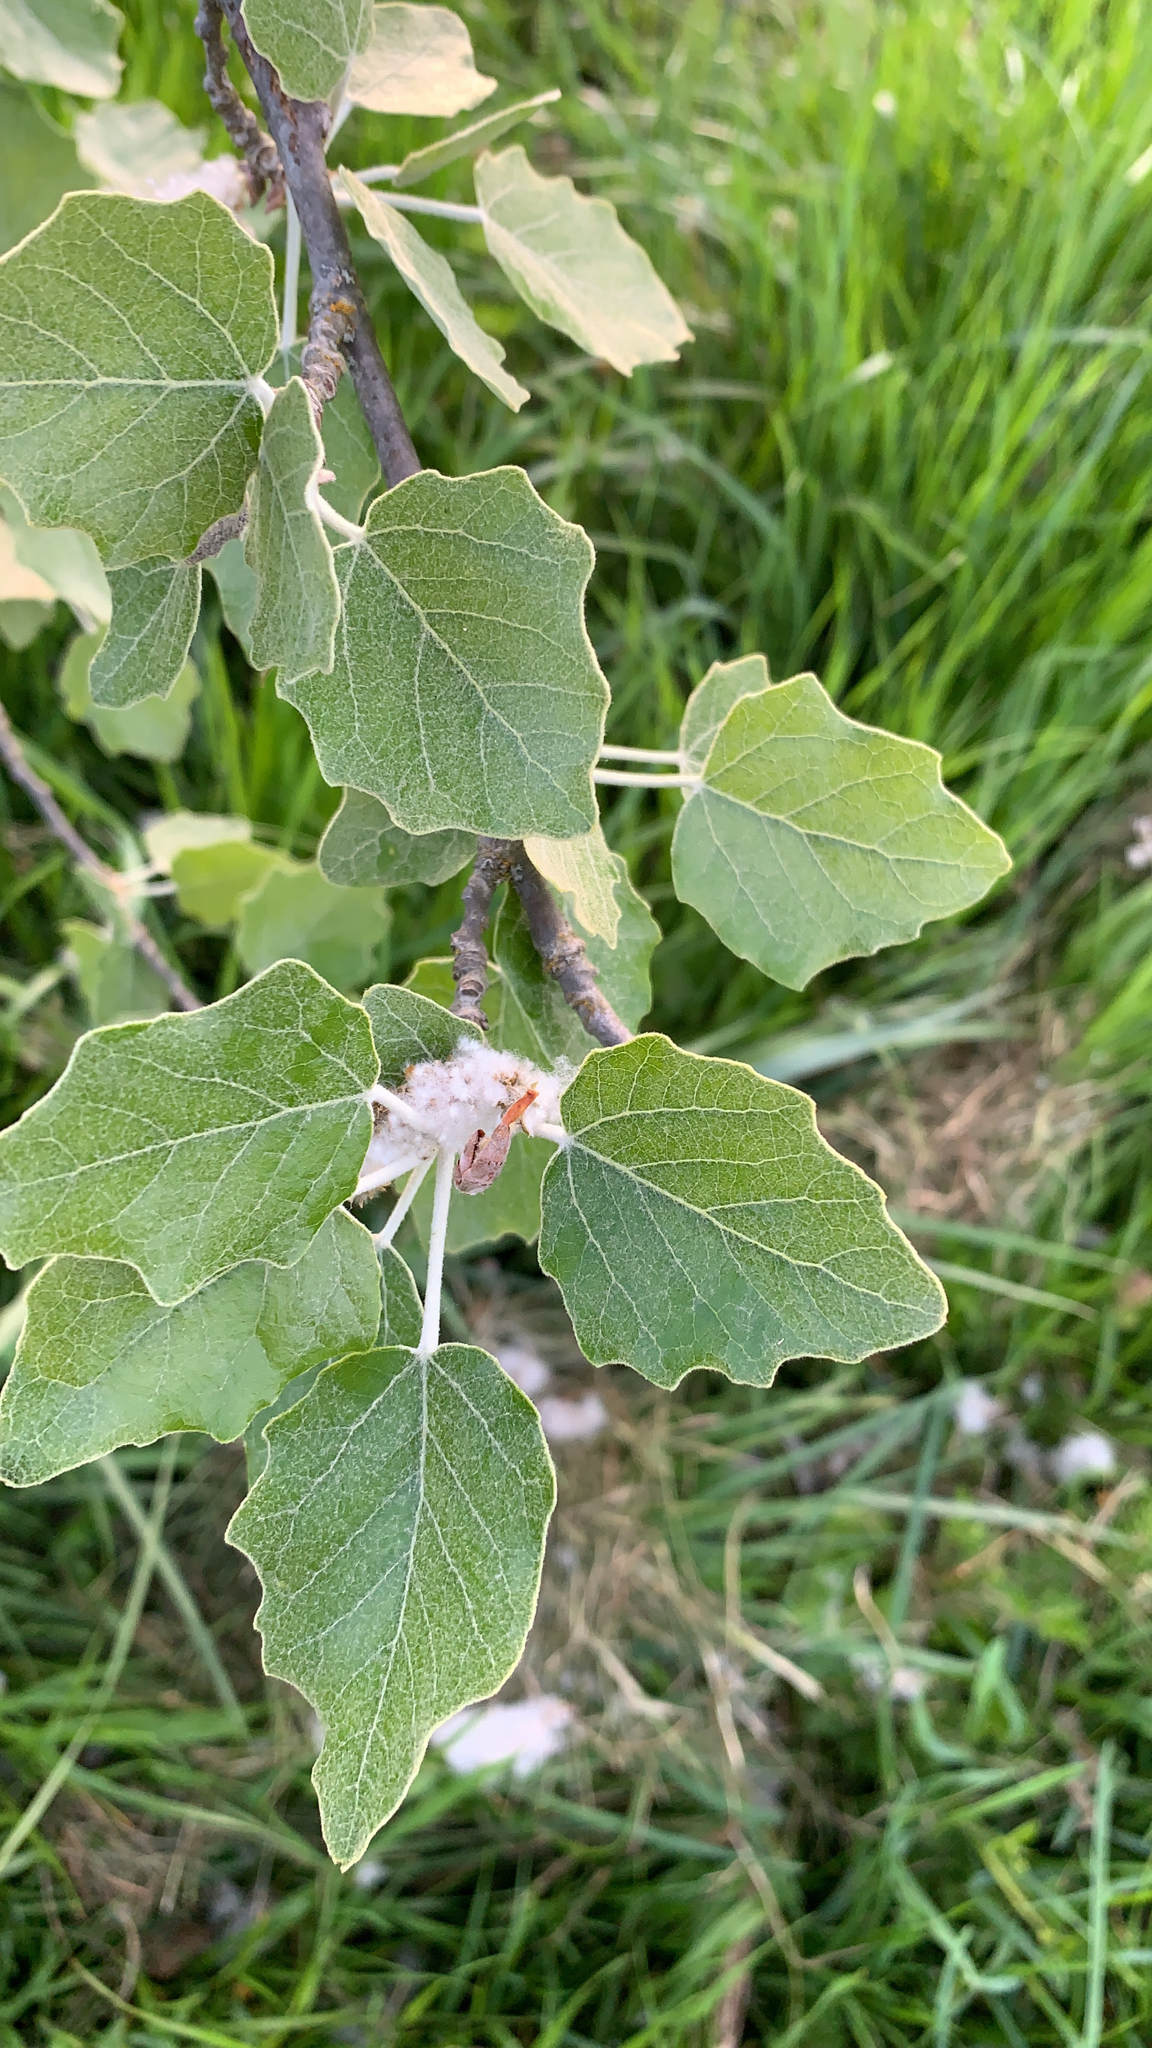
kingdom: Plantae
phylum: Tracheophyta
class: Magnoliopsida
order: Malpighiales
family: Salicaceae
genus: Populus
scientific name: Populus alba
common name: White poplar
